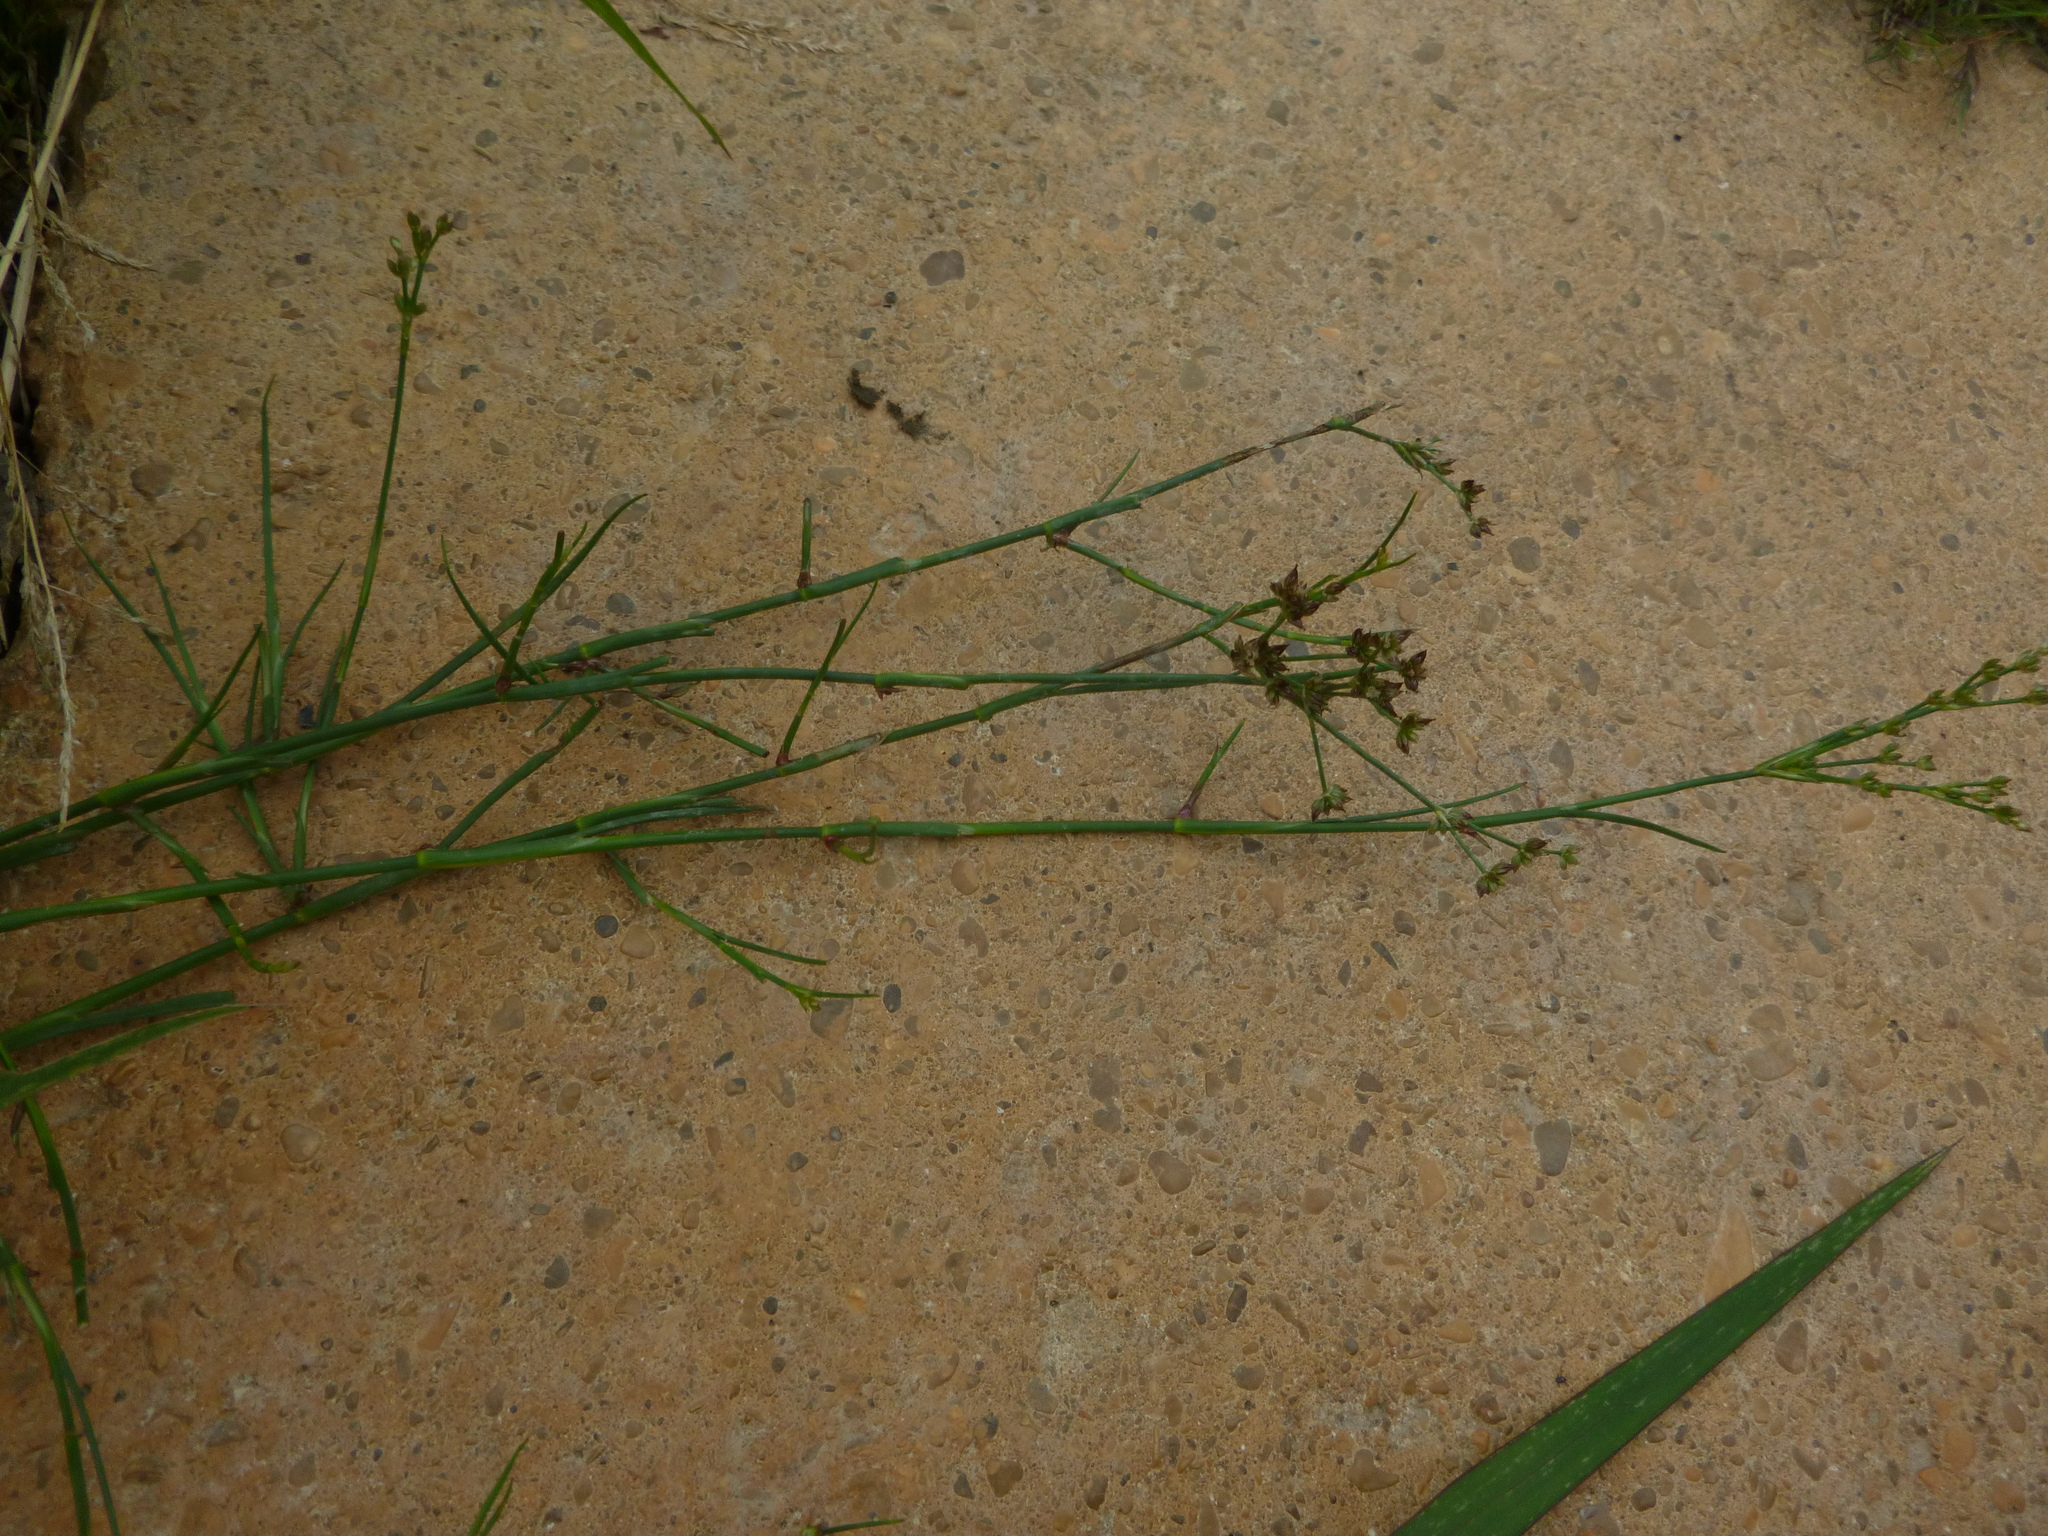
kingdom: Plantae
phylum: Tracheophyta
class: Liliopsida
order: Poales
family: Juncaceae
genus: Juncus
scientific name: Juncus articulatus
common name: Jointed rush
